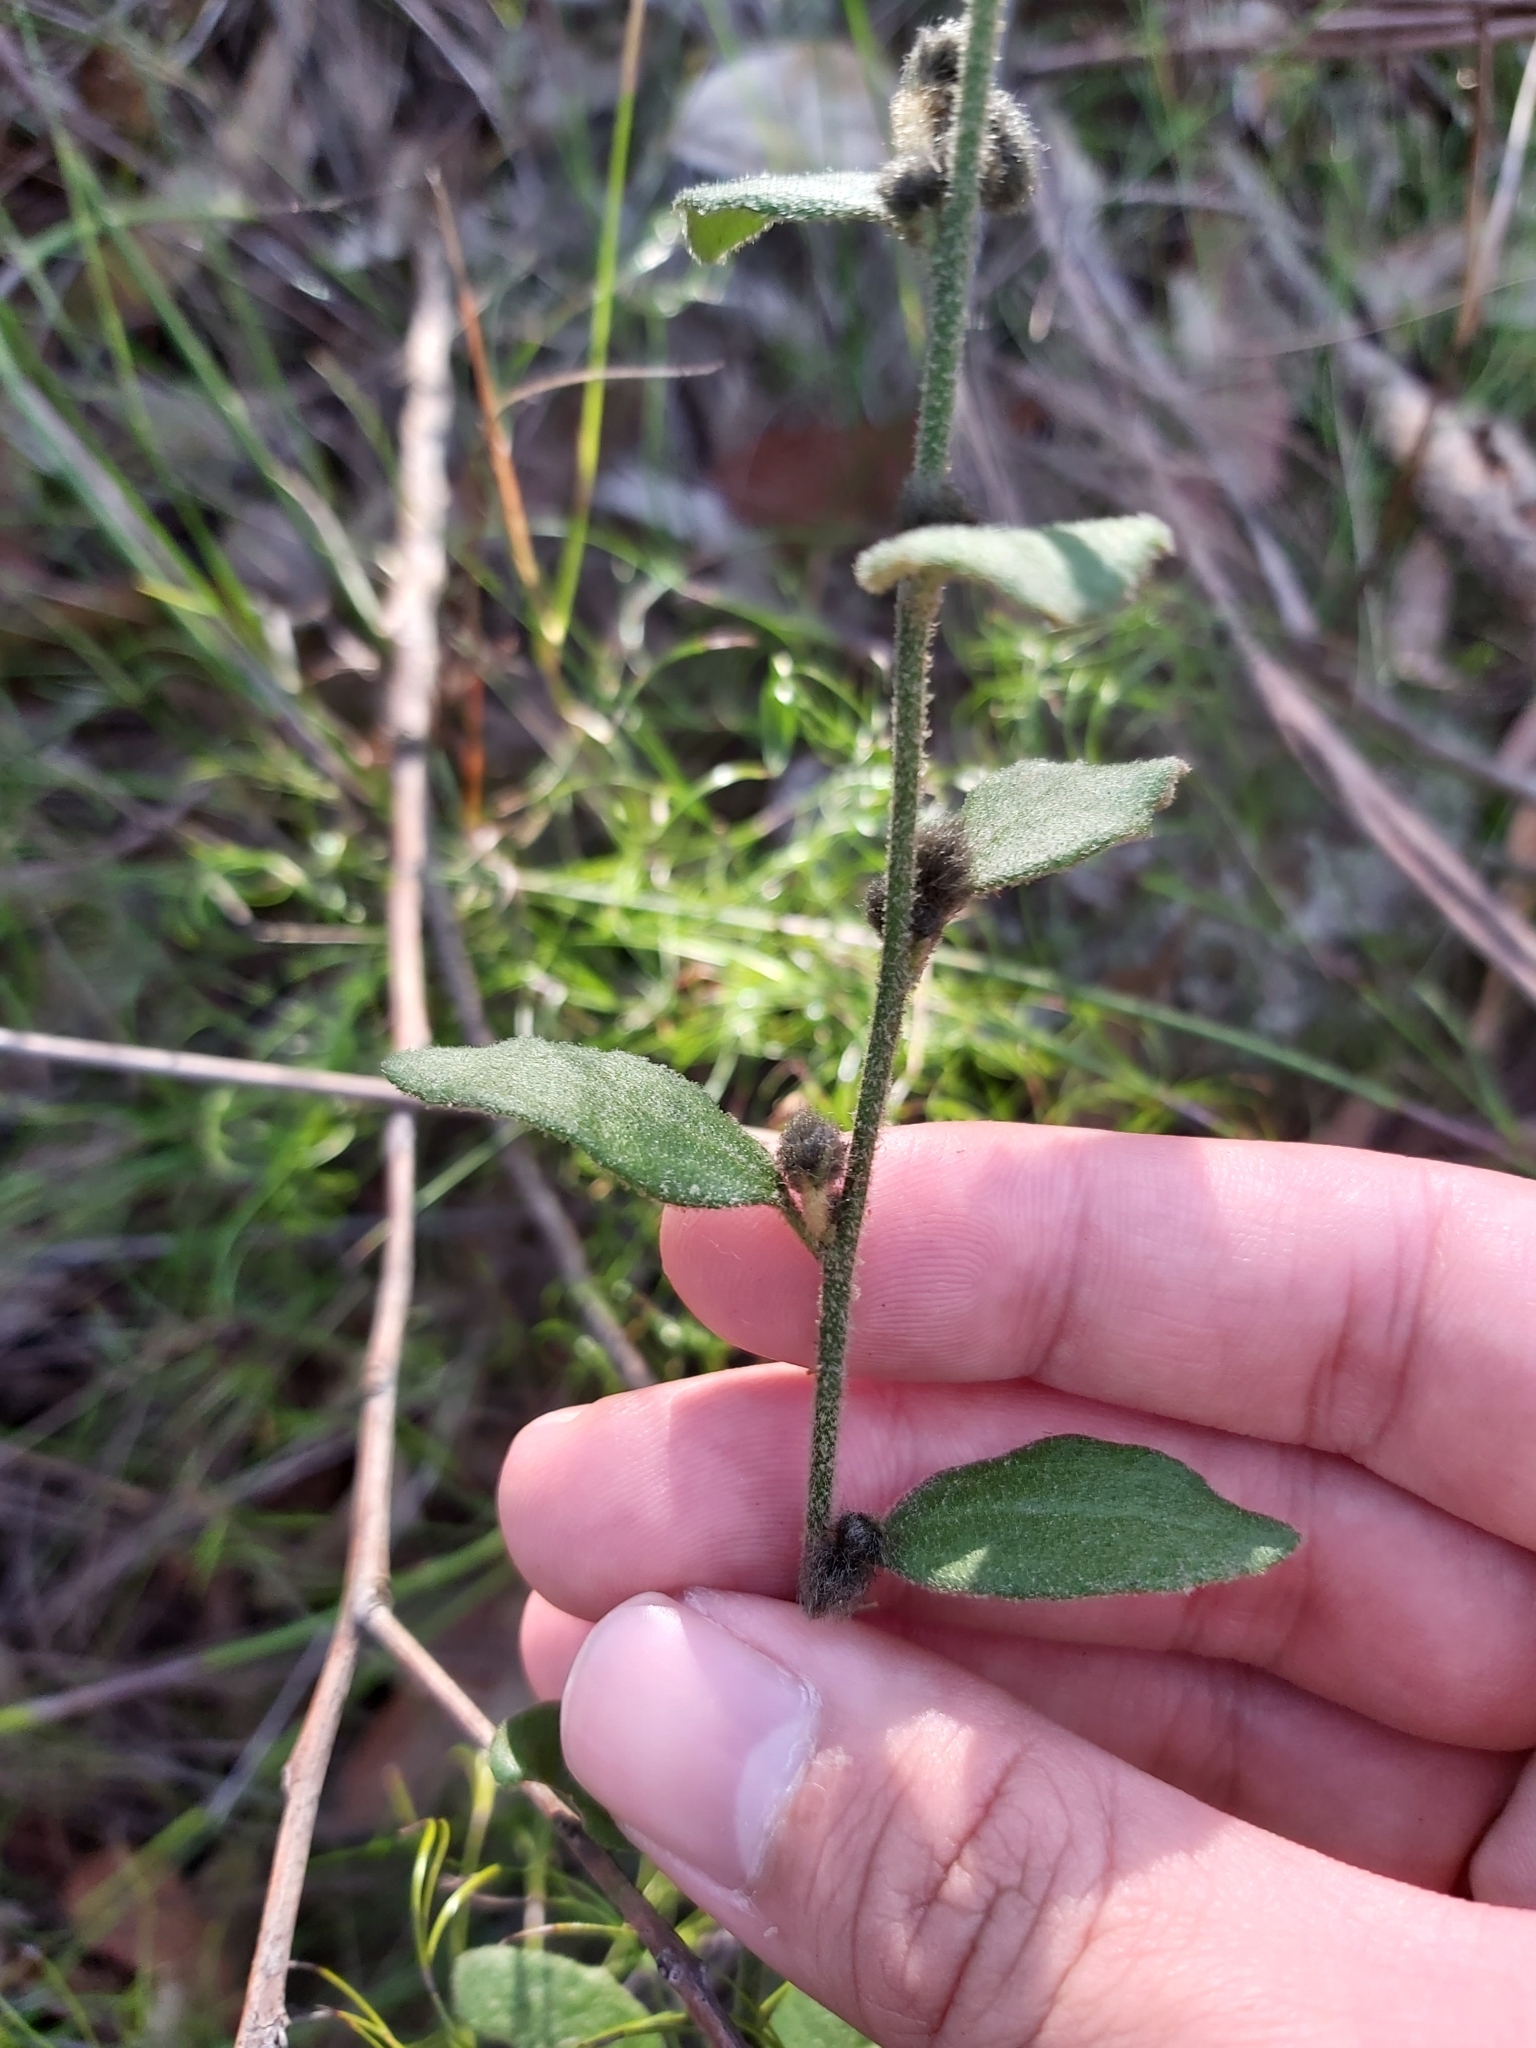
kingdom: Plantae
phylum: Tracheophyta
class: Magnoliopsida
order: Asterales
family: Goodeniaceae
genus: Dampiera
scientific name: Dampiera purpurea
